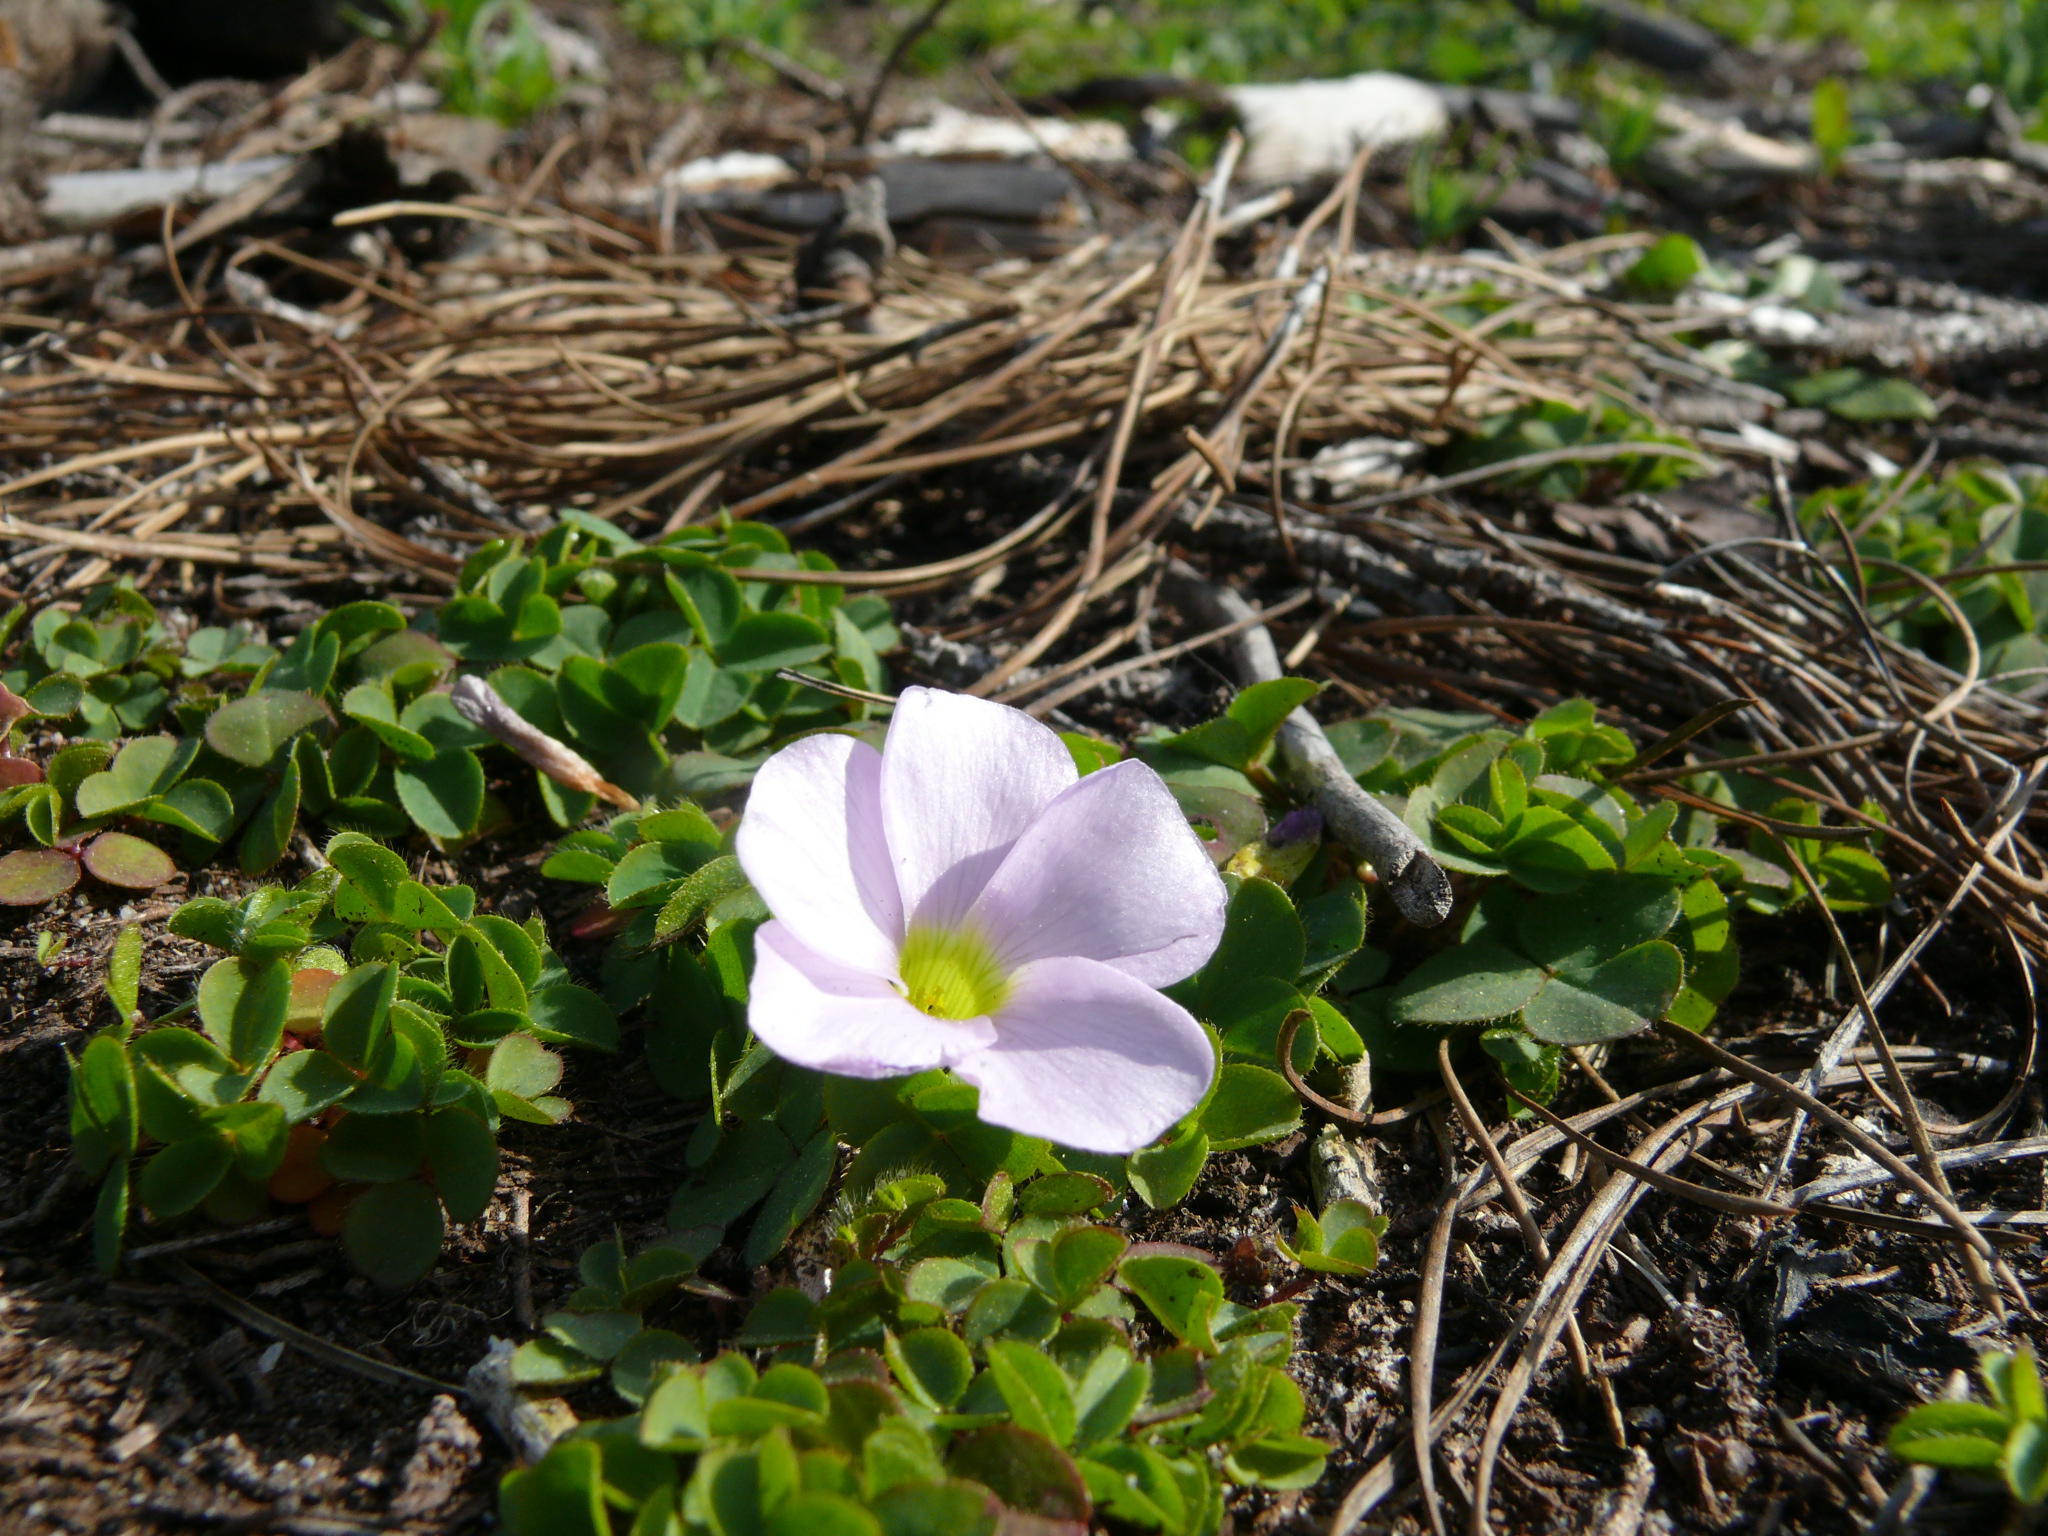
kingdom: Plantae
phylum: Tracheophyta
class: Magnoliopsida
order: Oxalidales
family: Oxalidaceae
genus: Oxalis
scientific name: Oxalis minuta
